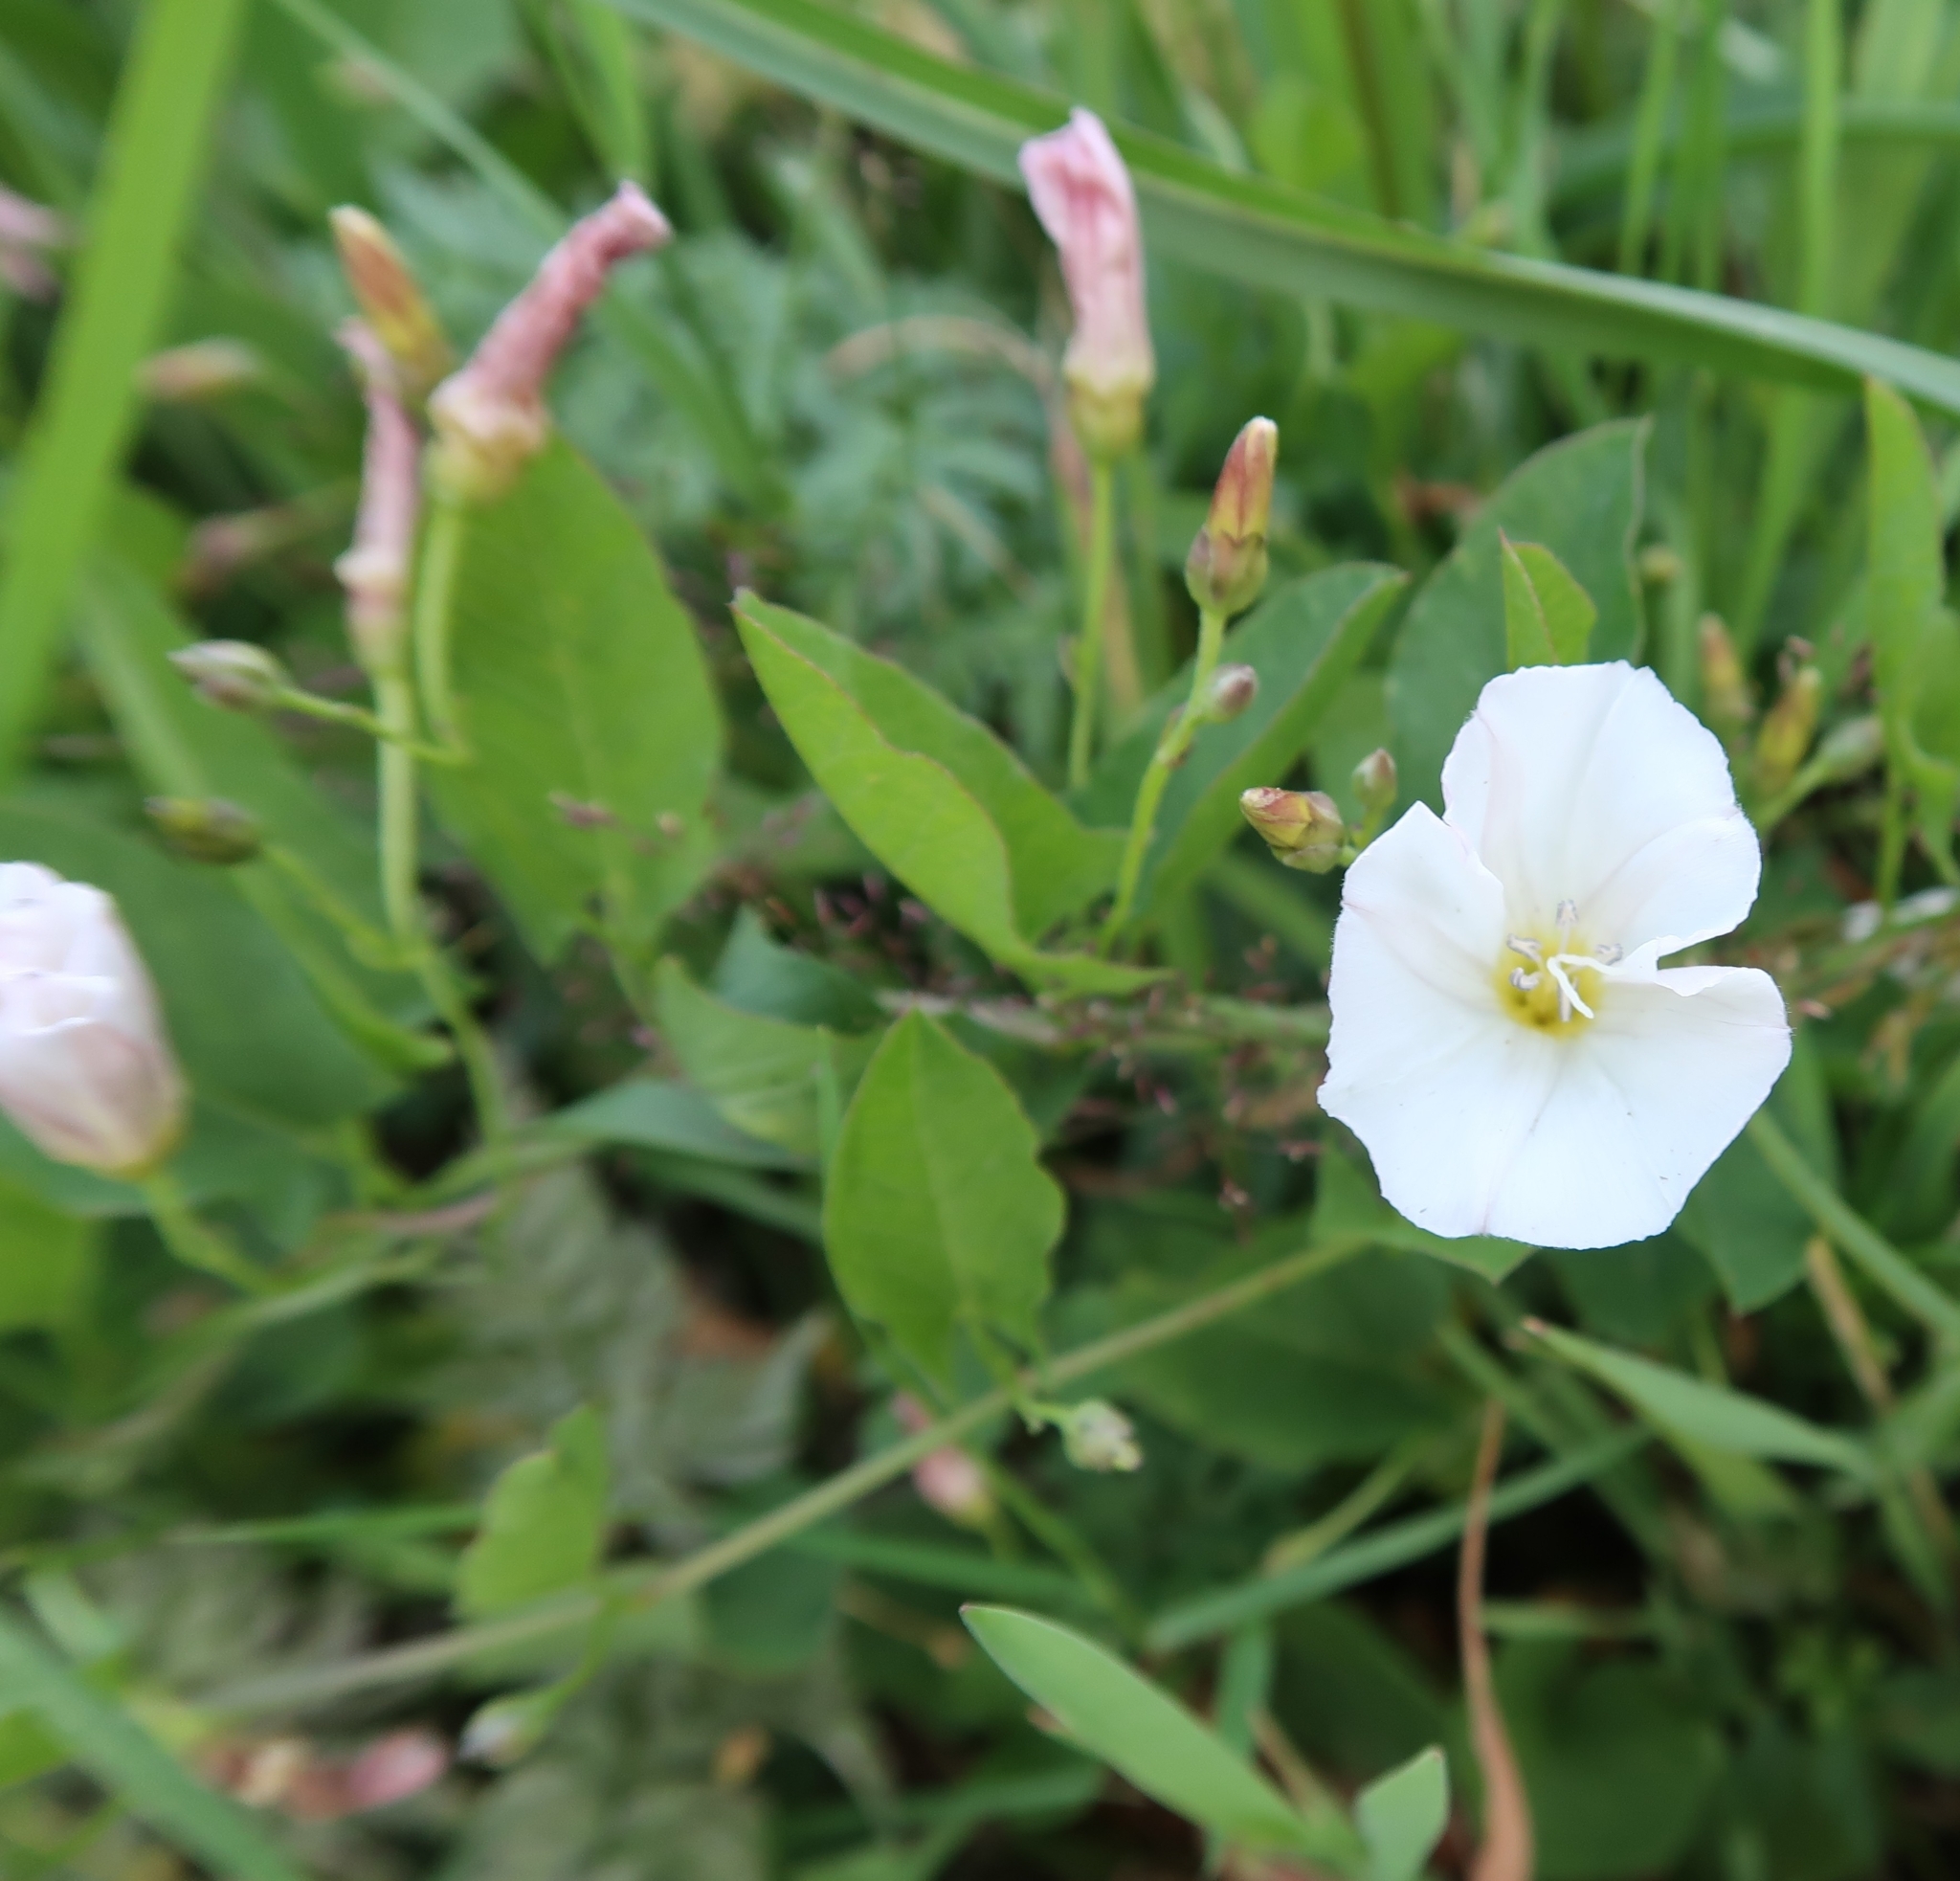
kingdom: Plantae
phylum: Tracheophyta
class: Magnoliopsida
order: Solanales
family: Convolvulaceae
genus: Convolvulus
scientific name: Convolvulus arvensis
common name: Field bindweed
